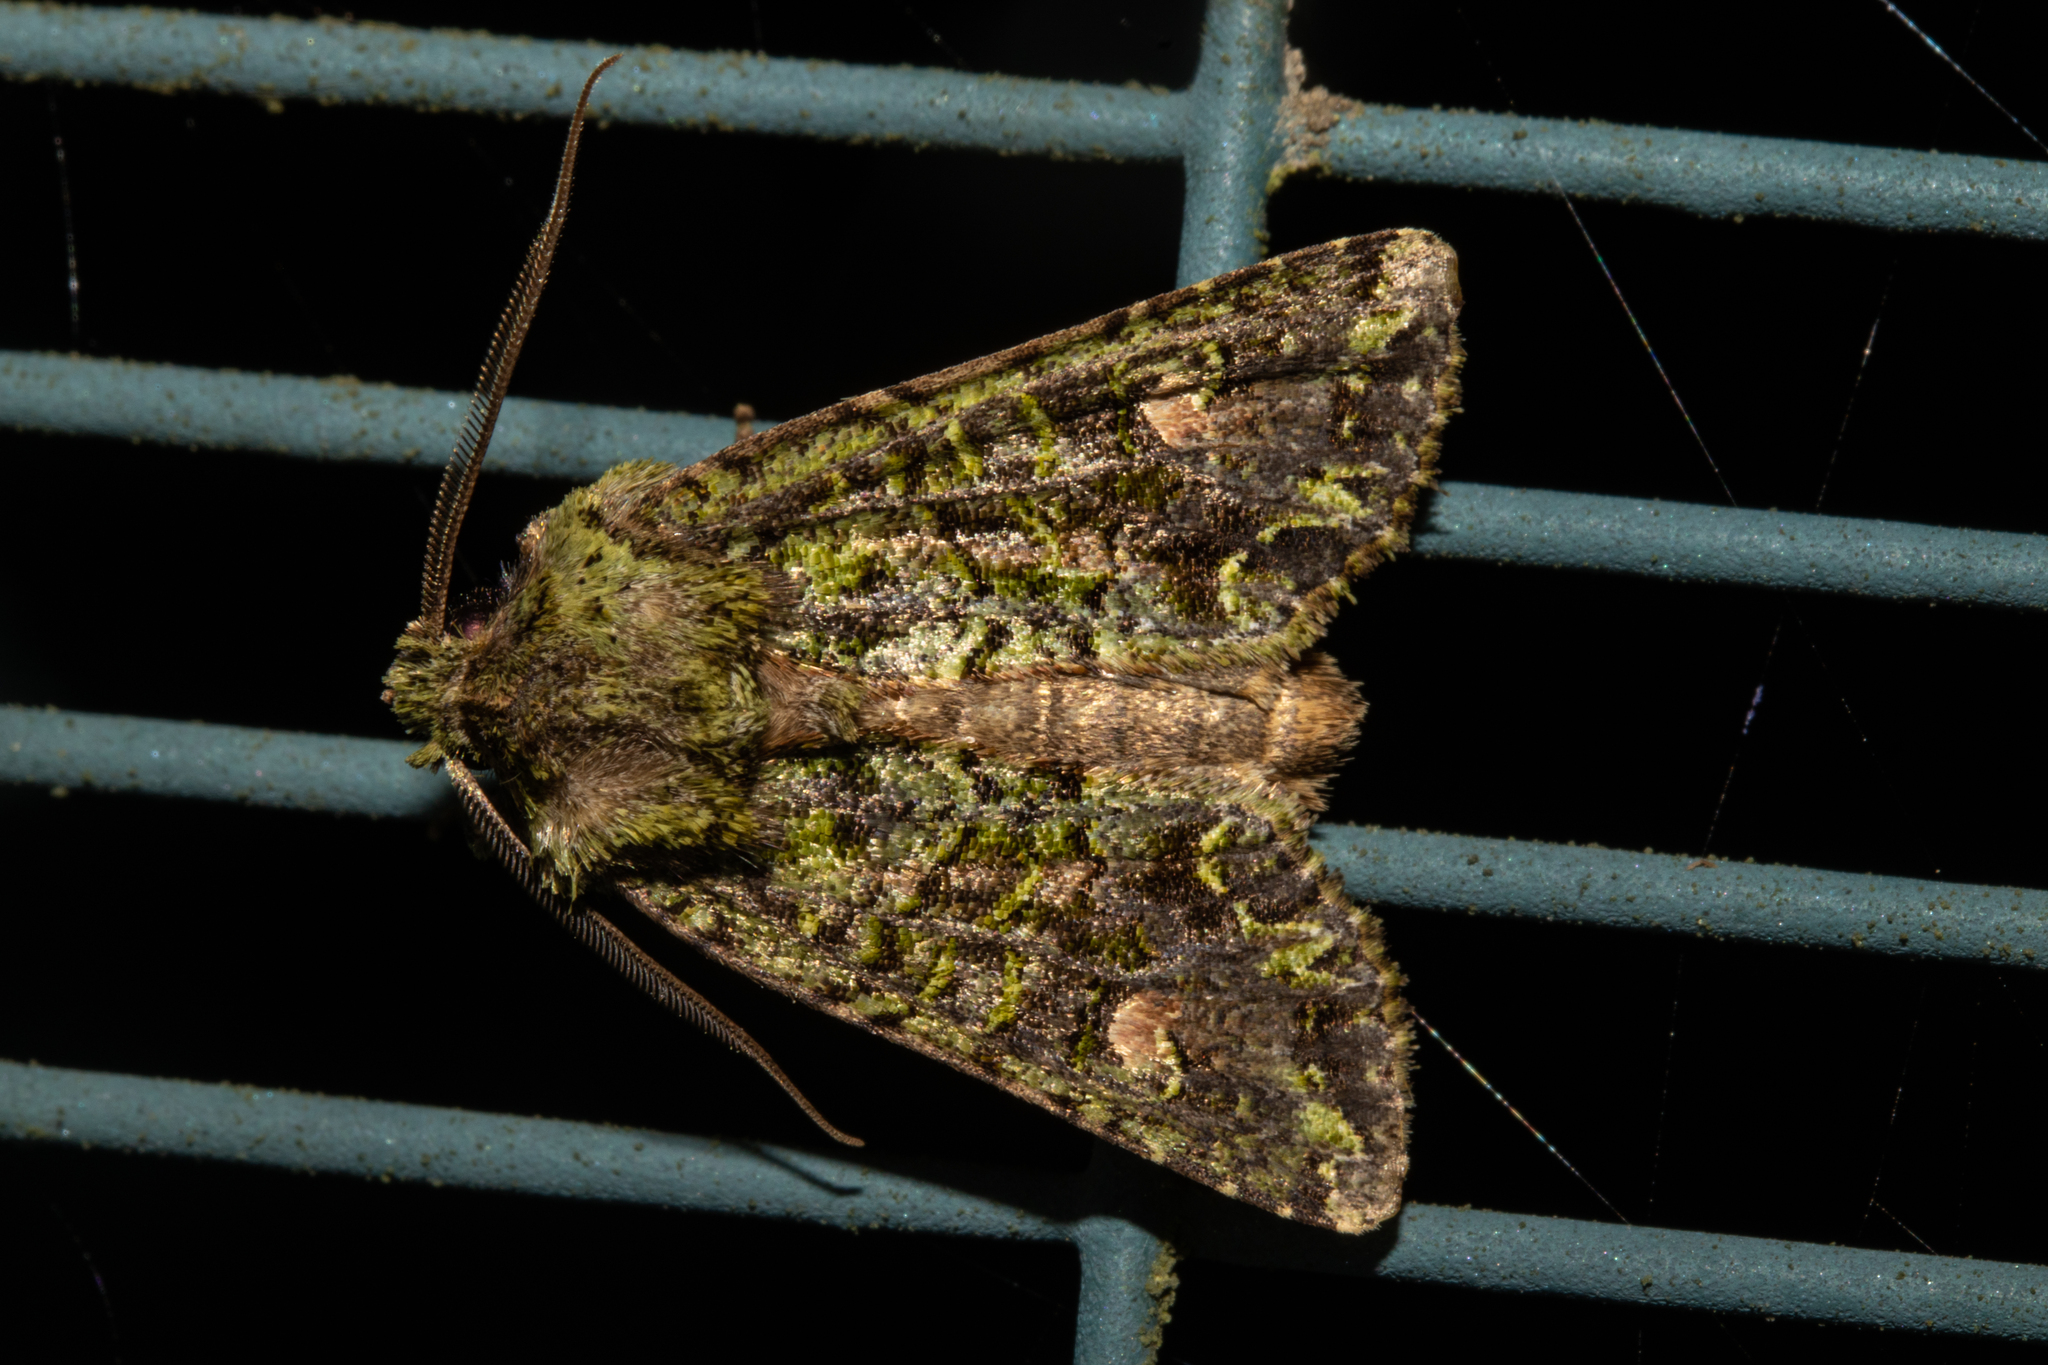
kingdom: Animalia
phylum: Arthropoda
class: Insecta
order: Lepidoptera
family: Noctuidae
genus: Ichneutica
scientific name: Ichneutica
